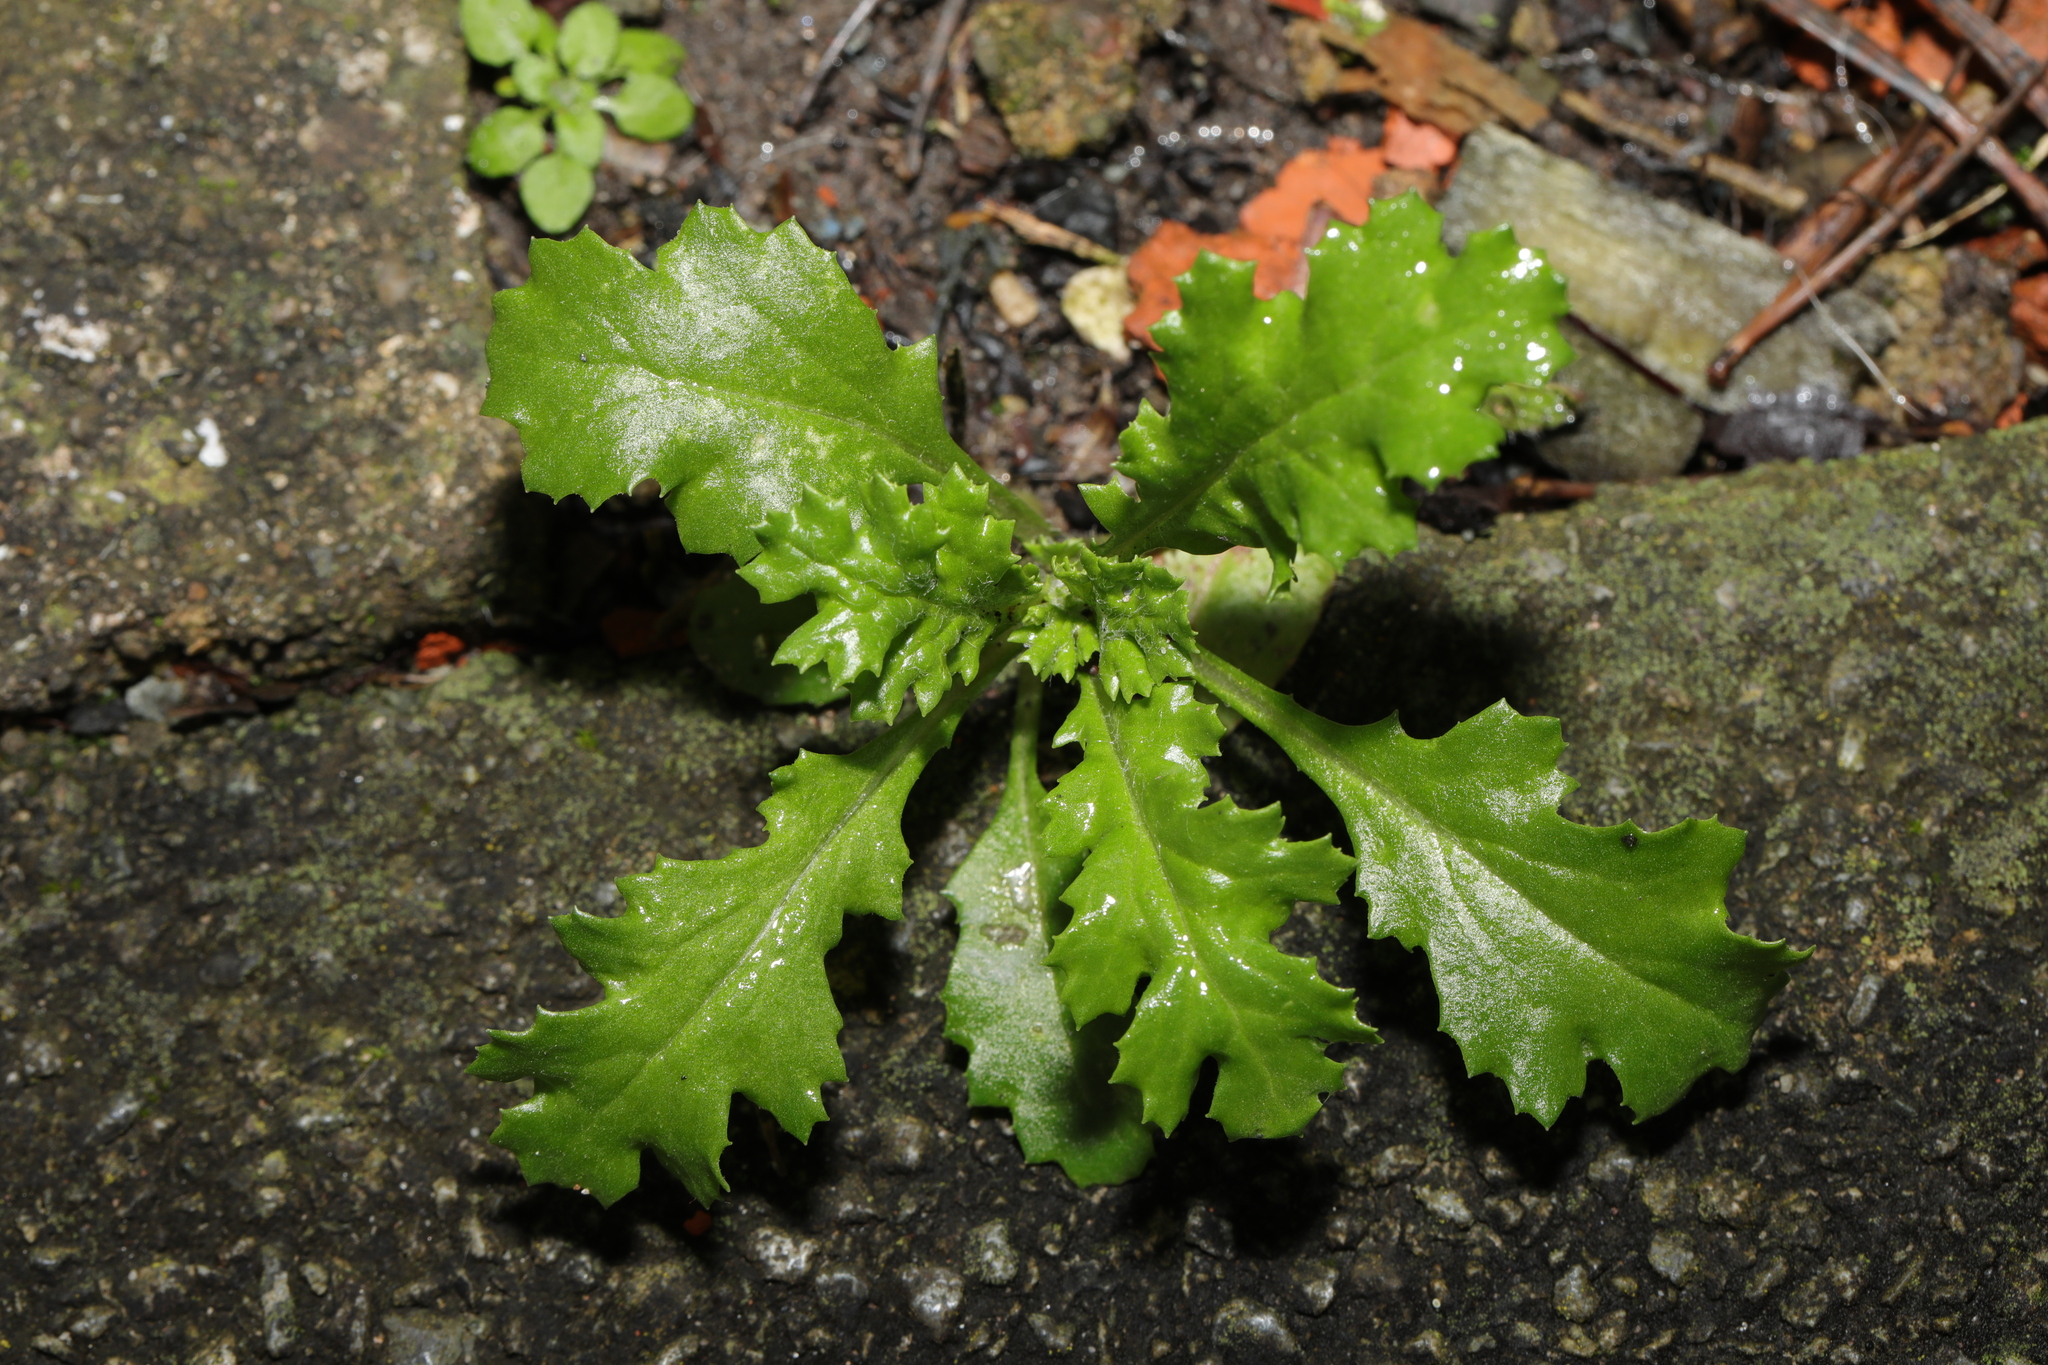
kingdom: Plantae
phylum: Tracheophyta
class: Magnoliopsida
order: Asterales
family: Asteraceae
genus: Senecio
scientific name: Senecio vulgaris
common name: Old-man-in-the-spring
